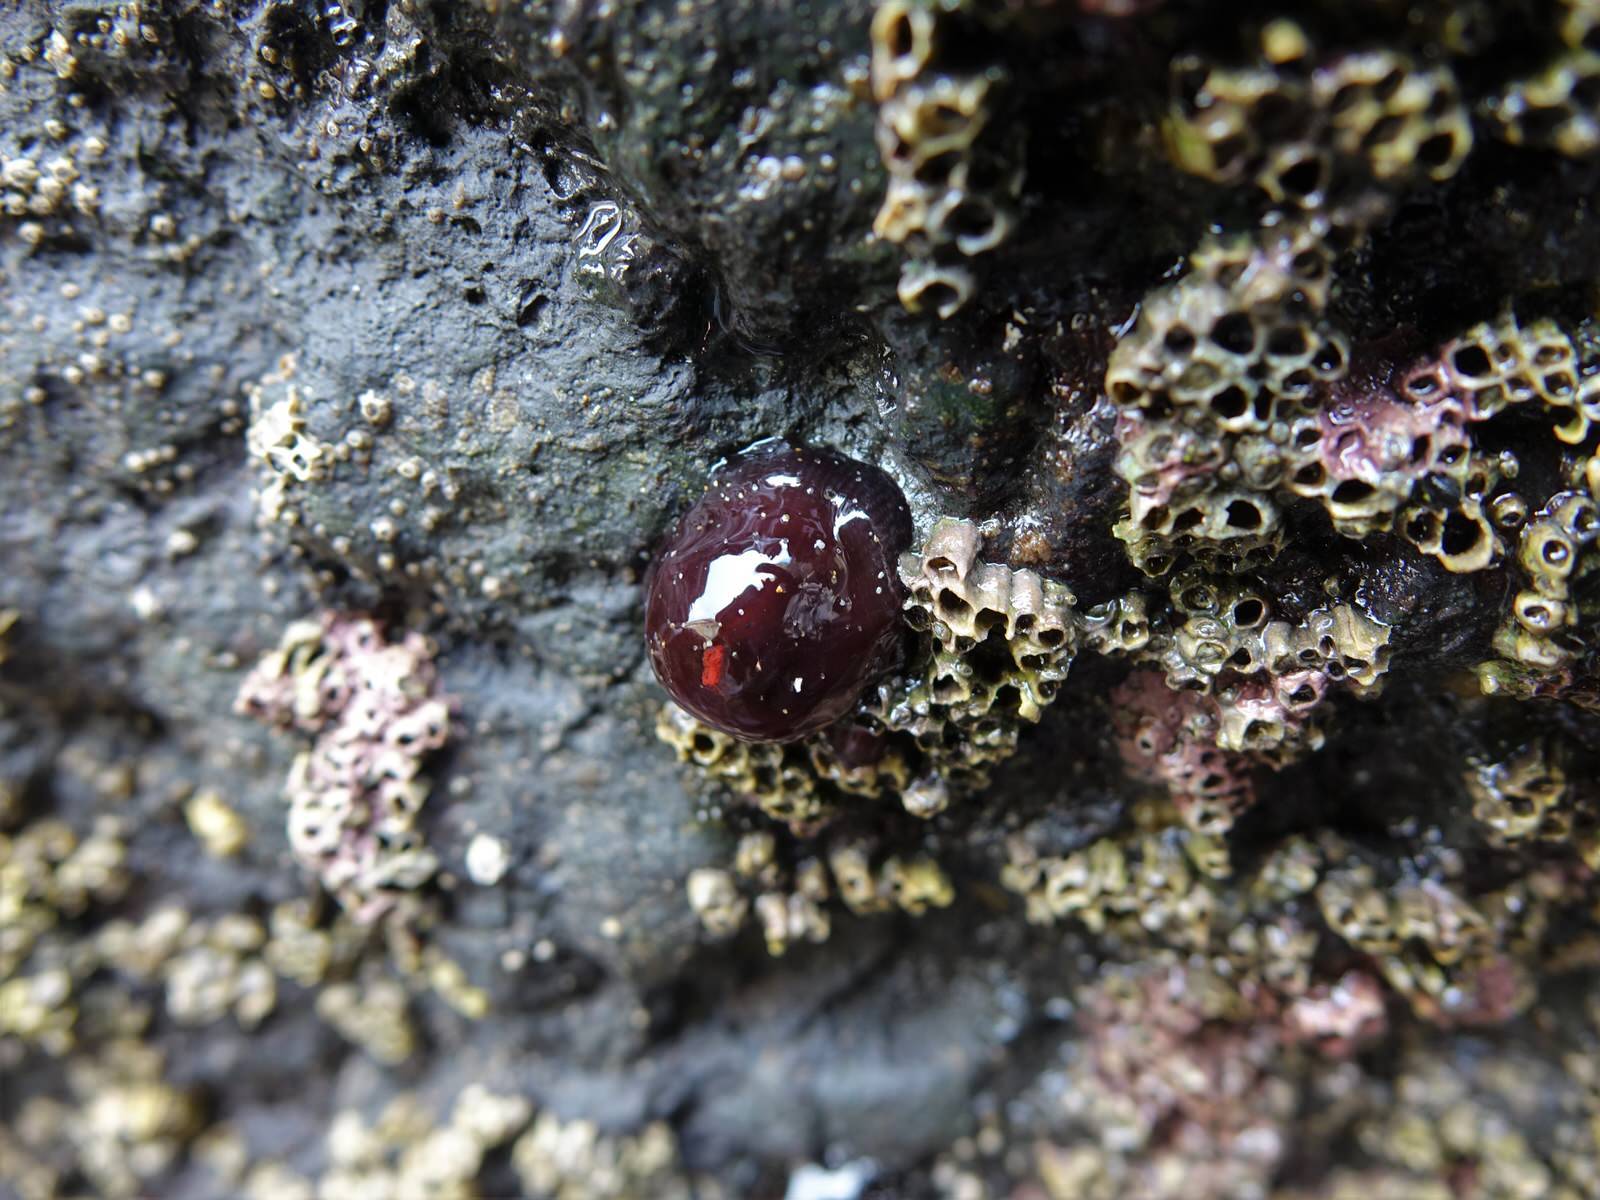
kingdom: Animalia
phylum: Cnidaria
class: Anthozoa
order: Actiniaria
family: Actiniidae
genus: Actinia
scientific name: Actinia tenebrosa
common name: Waratah anemone
